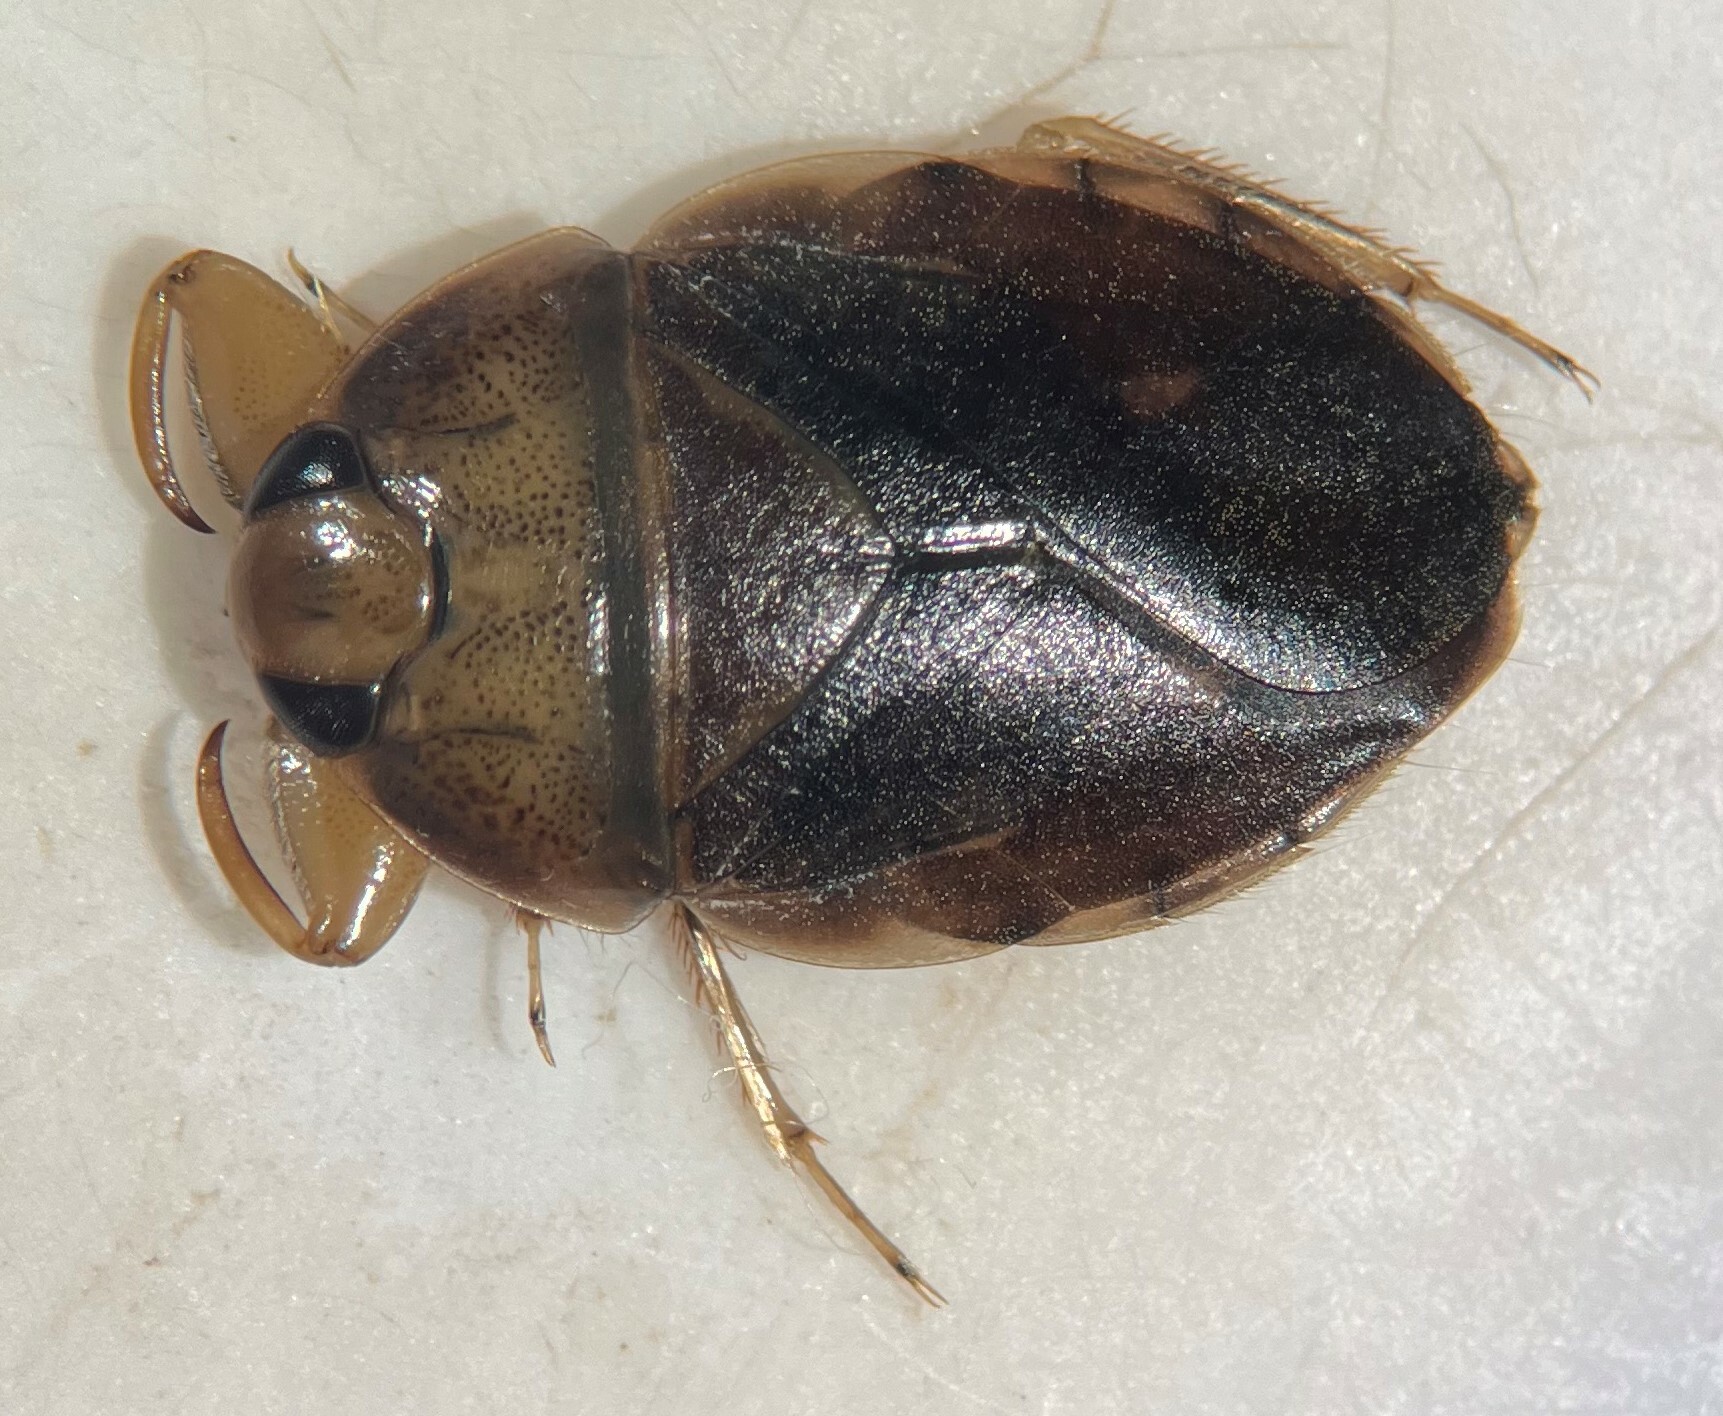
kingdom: Animalia
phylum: Arthropoda
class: Insecta
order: Hemiptera
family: Naucoridae
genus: Ambrysus
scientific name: Ambrysus pudicus
